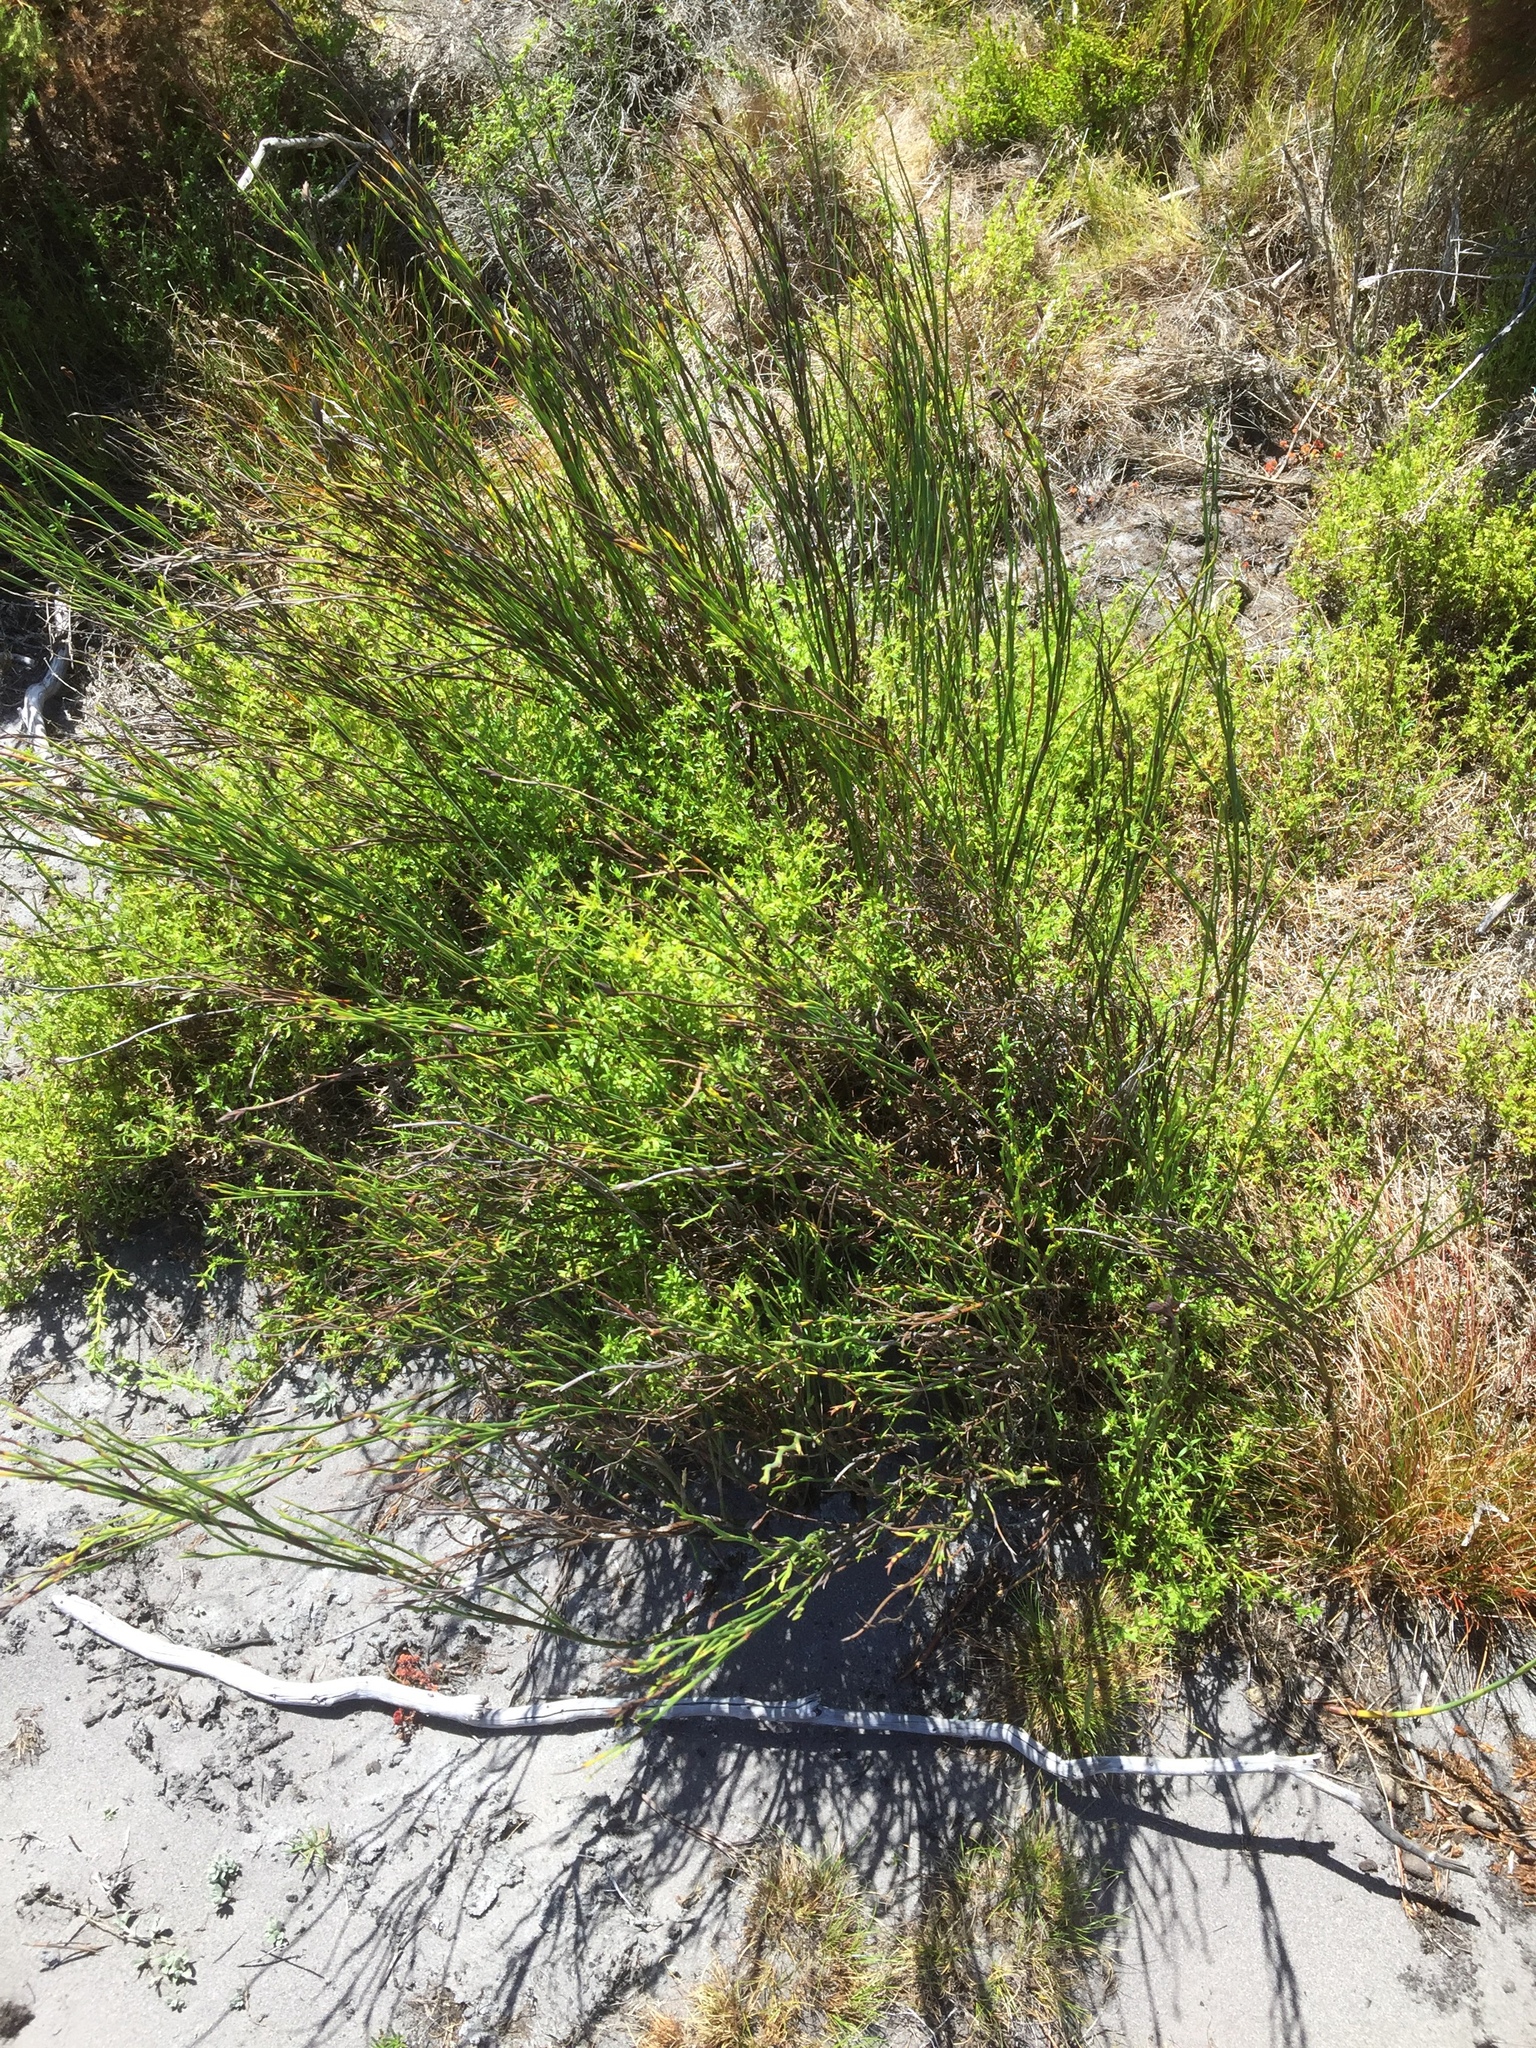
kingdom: Plantae
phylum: Tracheophyta
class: Magnoliopsida
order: Gentianales
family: Rubiaceae
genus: Carpacoce
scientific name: Carpacoce spermacocea
